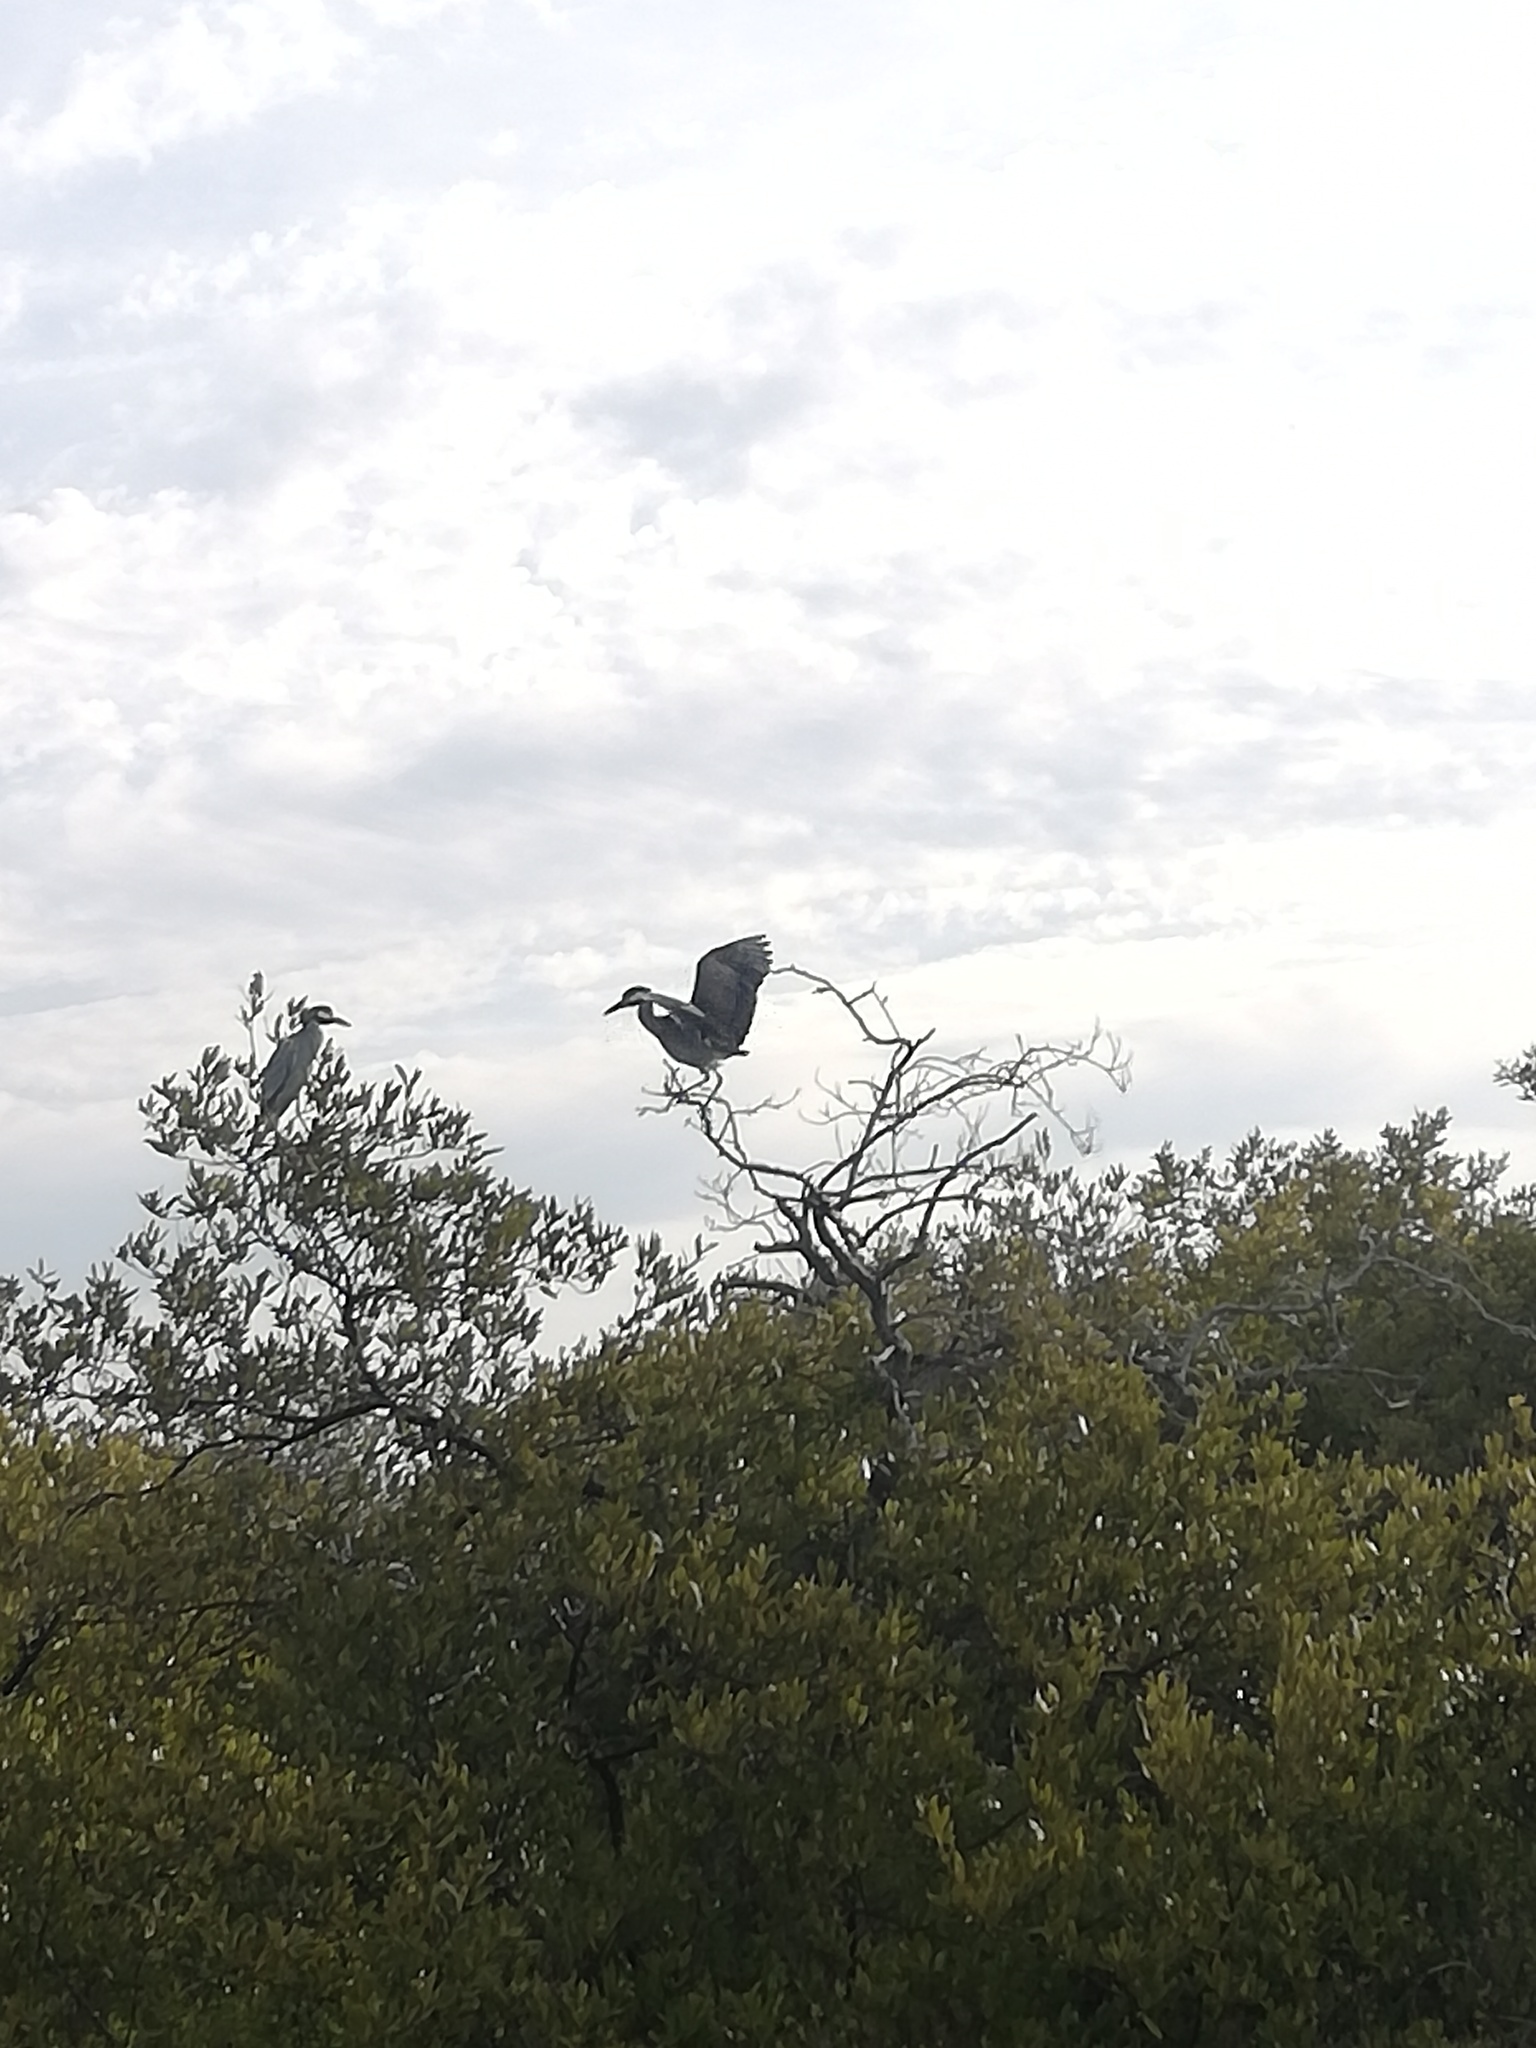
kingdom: Animalia
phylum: Chordata
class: Aves
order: Pelecaniformes
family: Ardeidae
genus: Nyctanassa
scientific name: Nyctanassa violacea
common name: Yellow-crowned night heron
